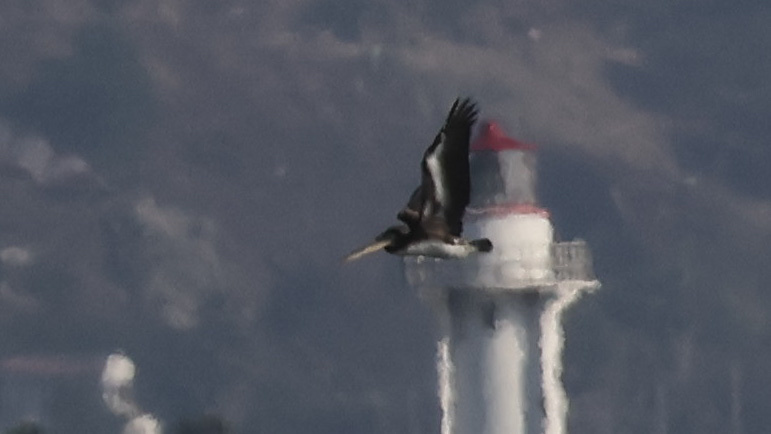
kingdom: Animalia
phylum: Chordata
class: Aves
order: Pelecaniformes
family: Pelecanidae
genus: Pelecanus
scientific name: Pelecanus occidentalis
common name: Brown pelican
